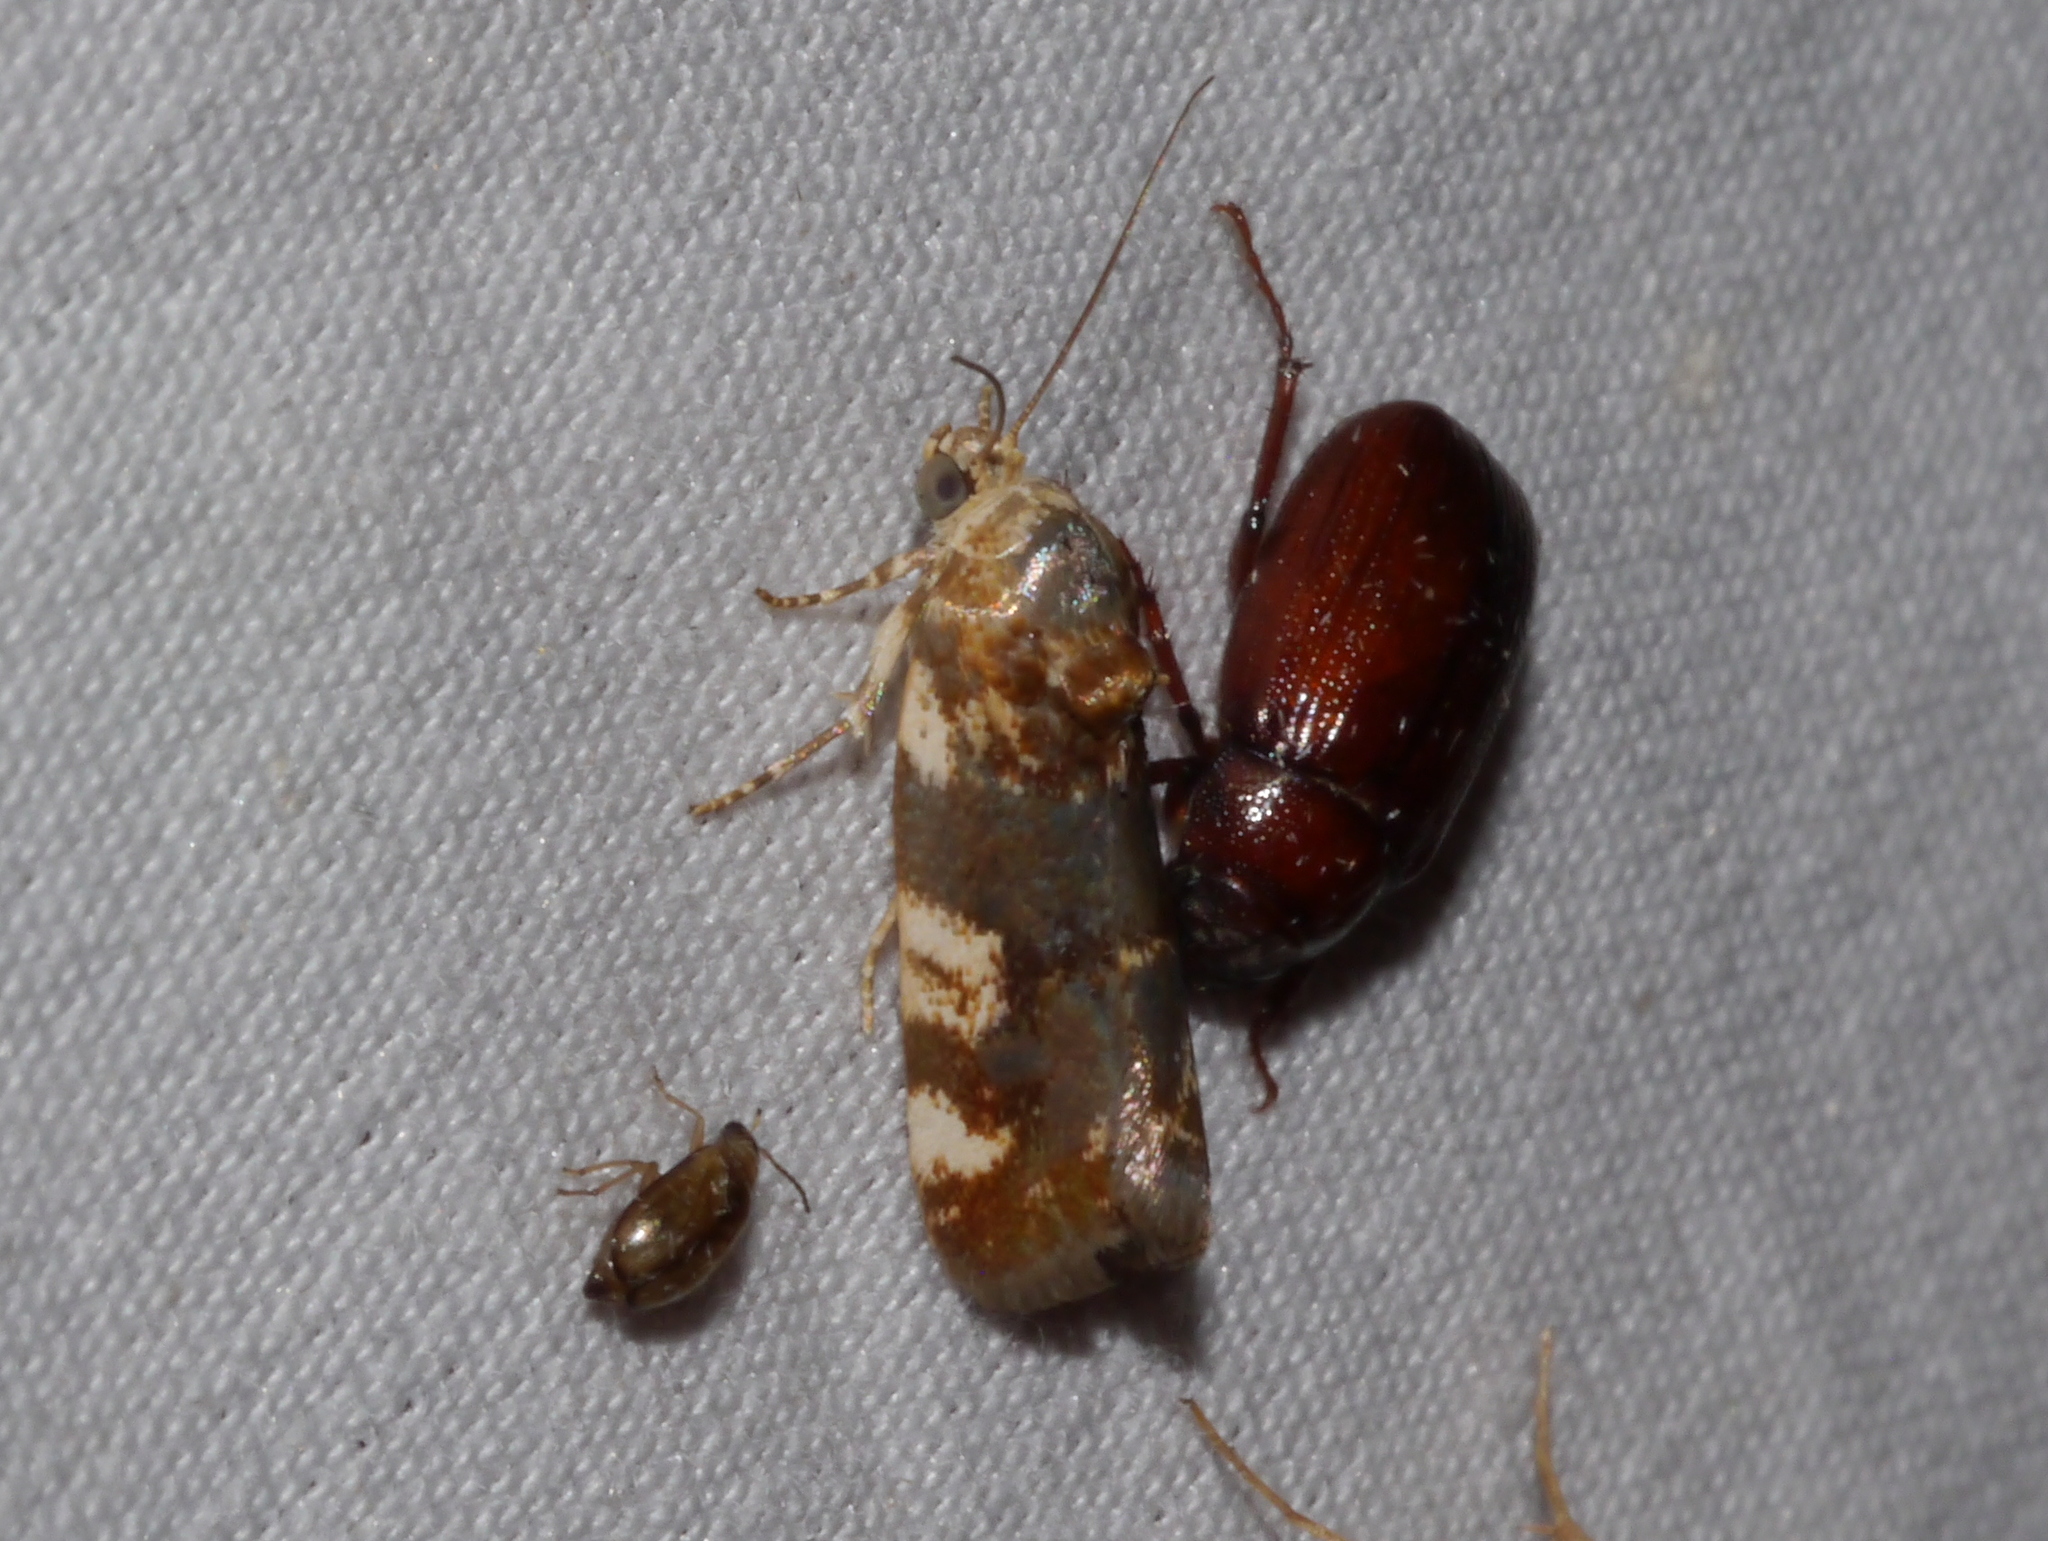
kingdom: Animalia
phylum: Arthropoda
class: Insecta
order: Lepidoptera
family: Noctuidae
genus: Acontia
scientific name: Acontia obatra
